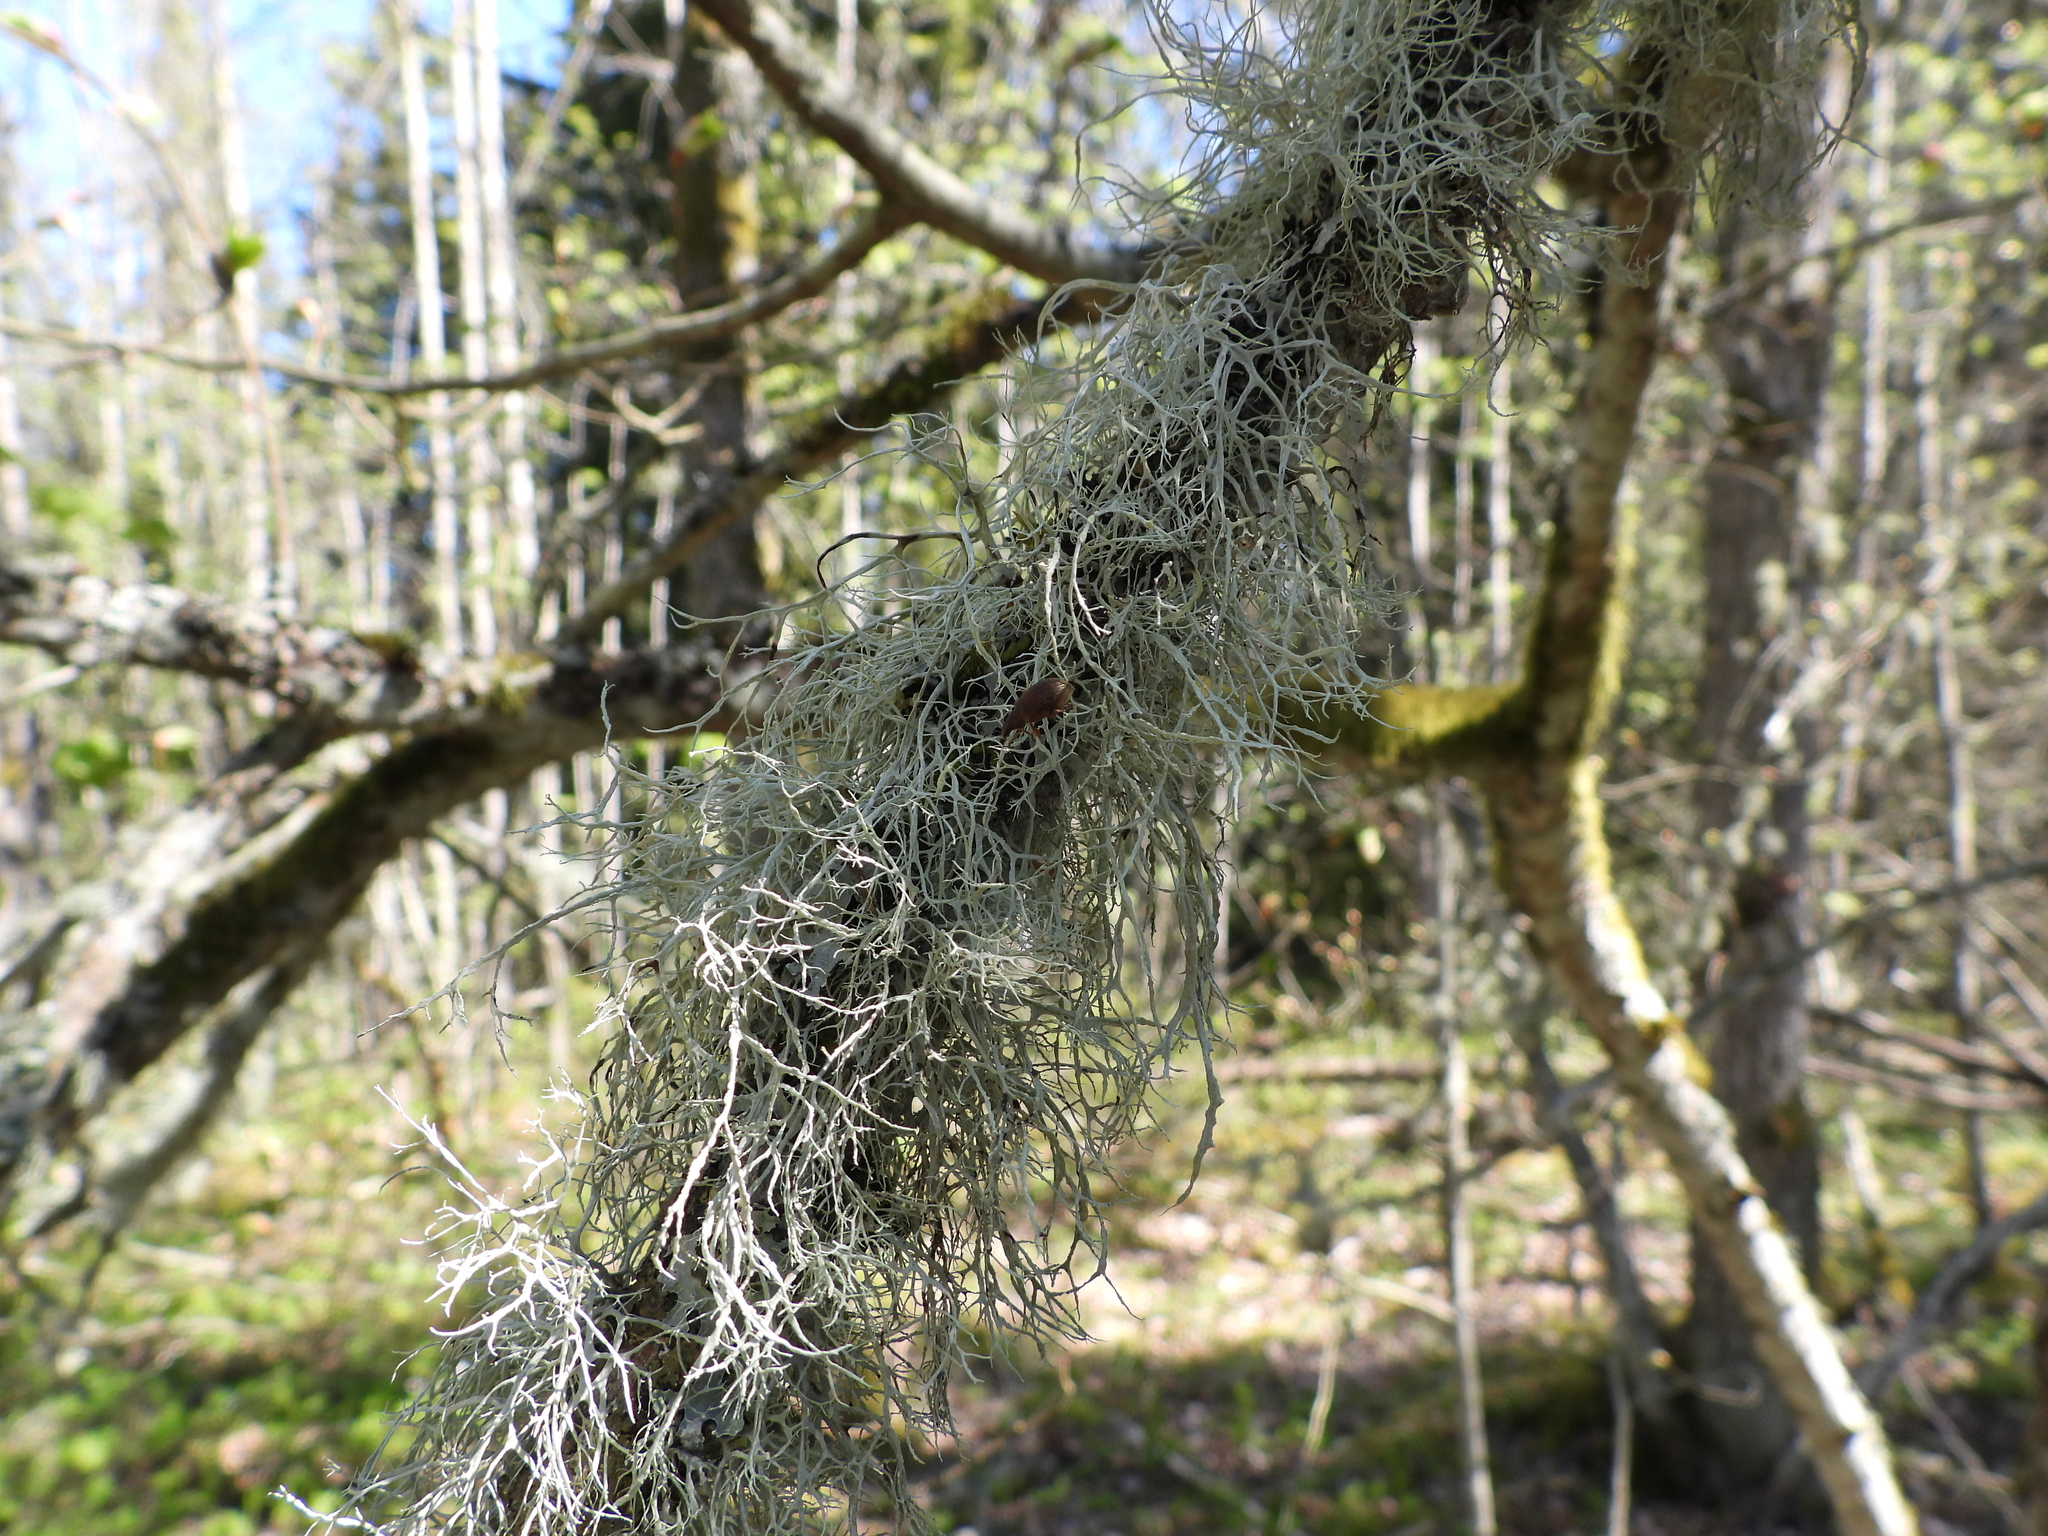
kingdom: Fungi
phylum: Ascomycota
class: Lecanoromycetes
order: Lecanorales
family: Ramalinaceae
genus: Ramalina
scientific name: Ramalina farinacea
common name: Farinose cartilage lichen
